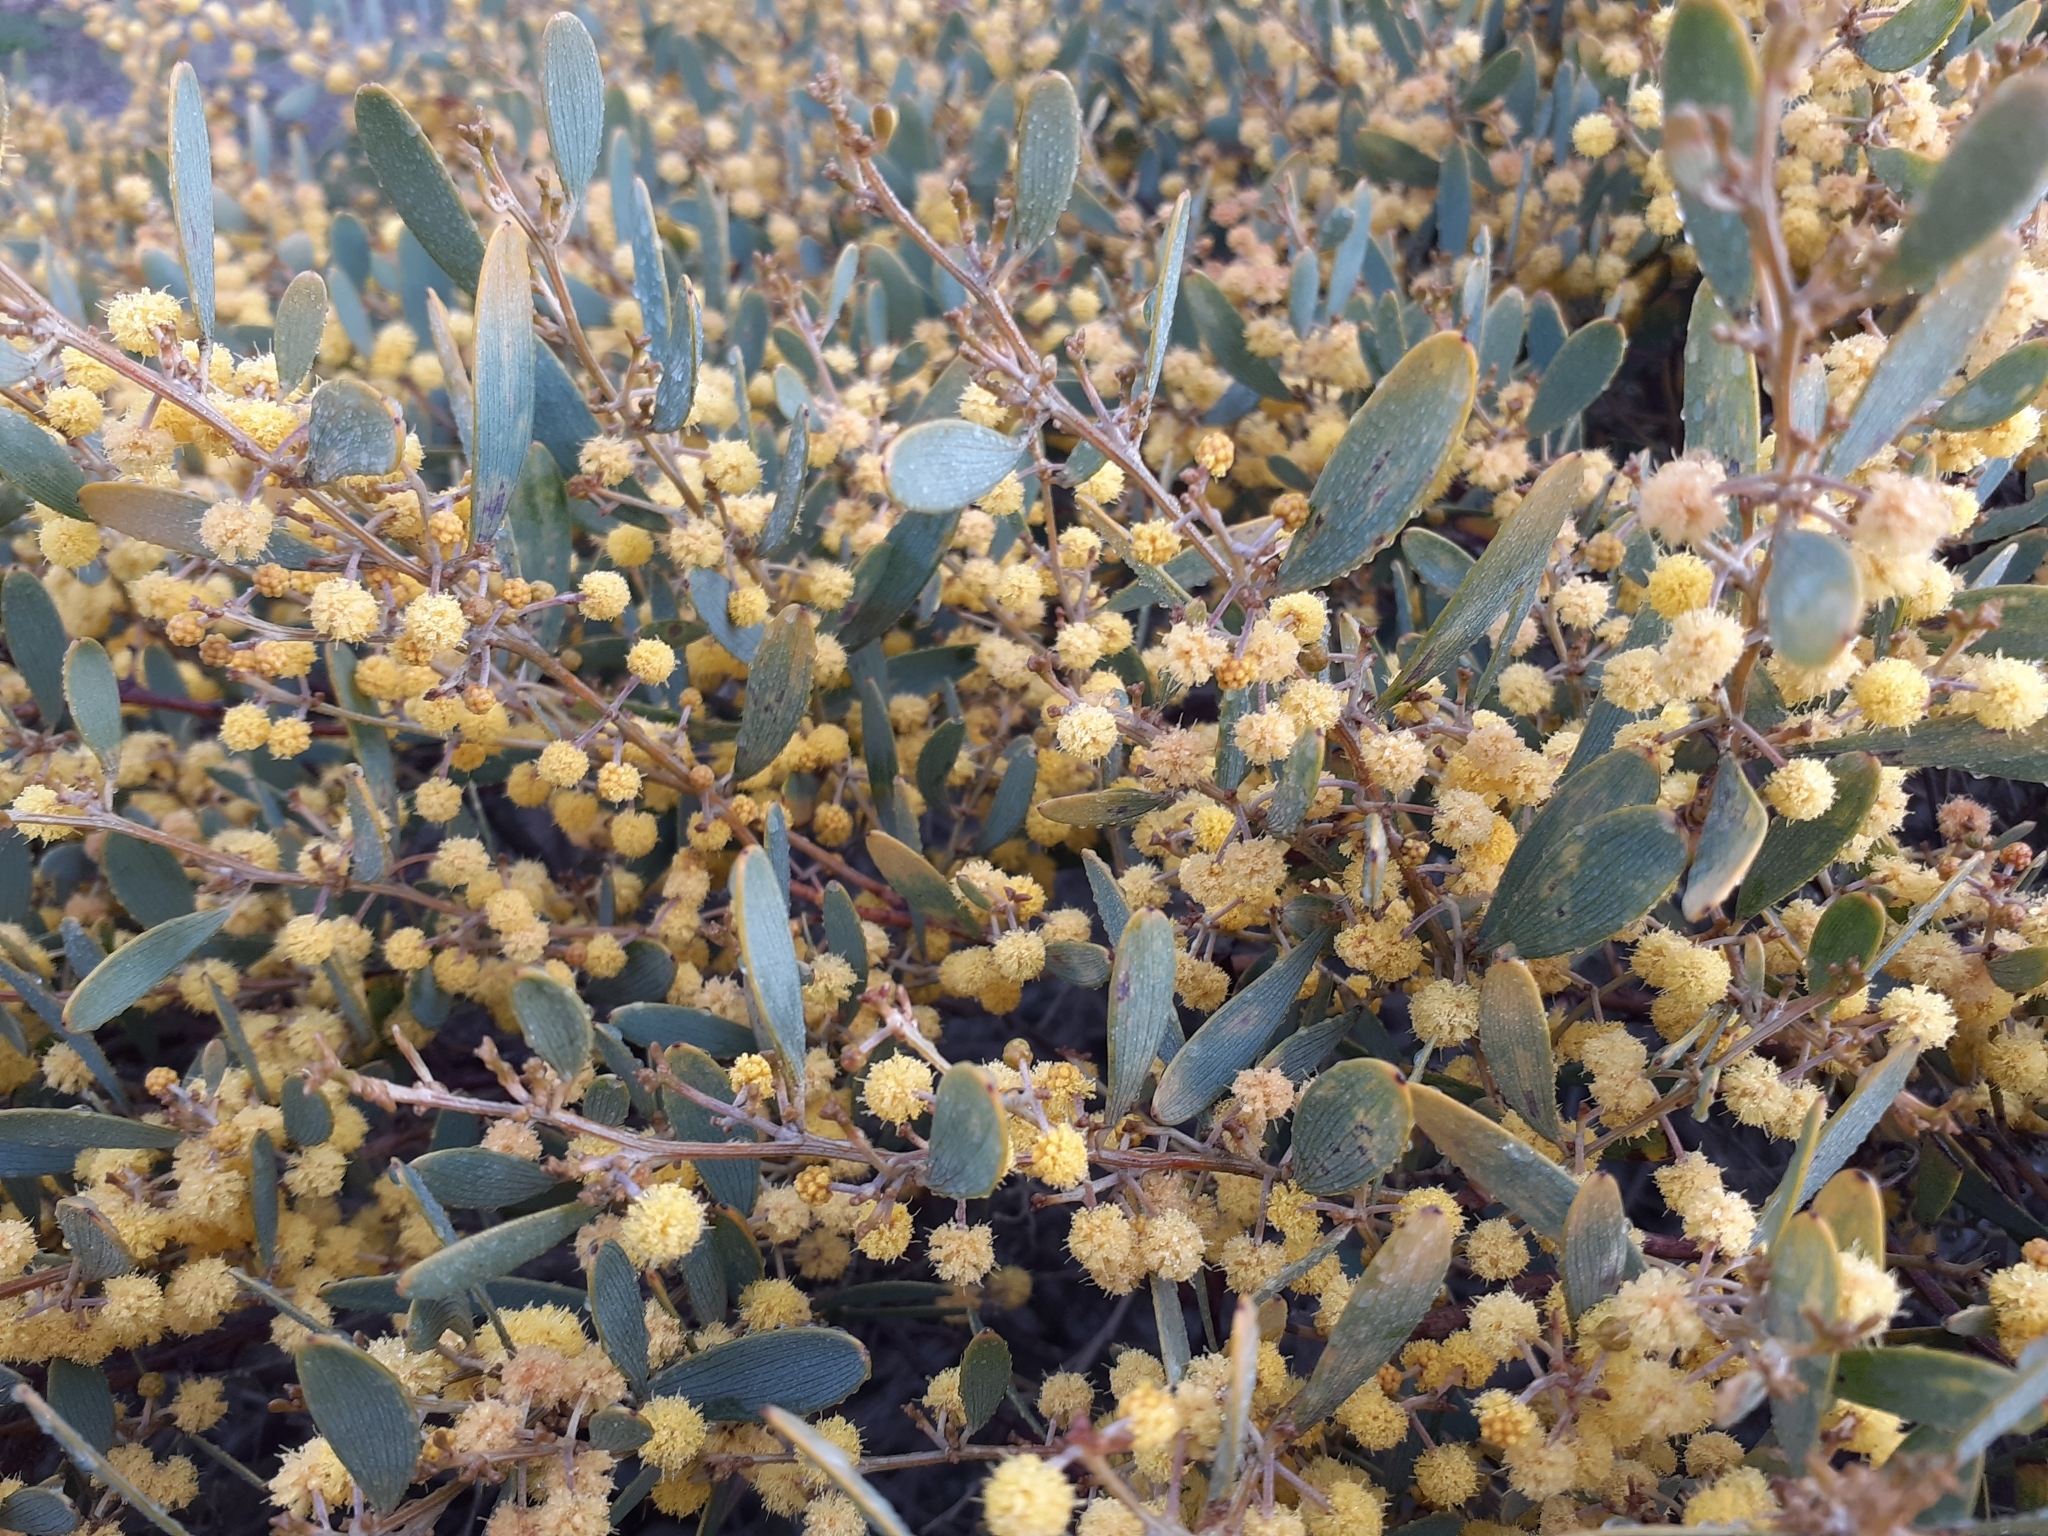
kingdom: Plantae
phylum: Tracheophyta
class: Magnoliopsida
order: Fabales
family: Fabaceae
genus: Acacia
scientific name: Acacia redolens
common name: Bank catclaw
